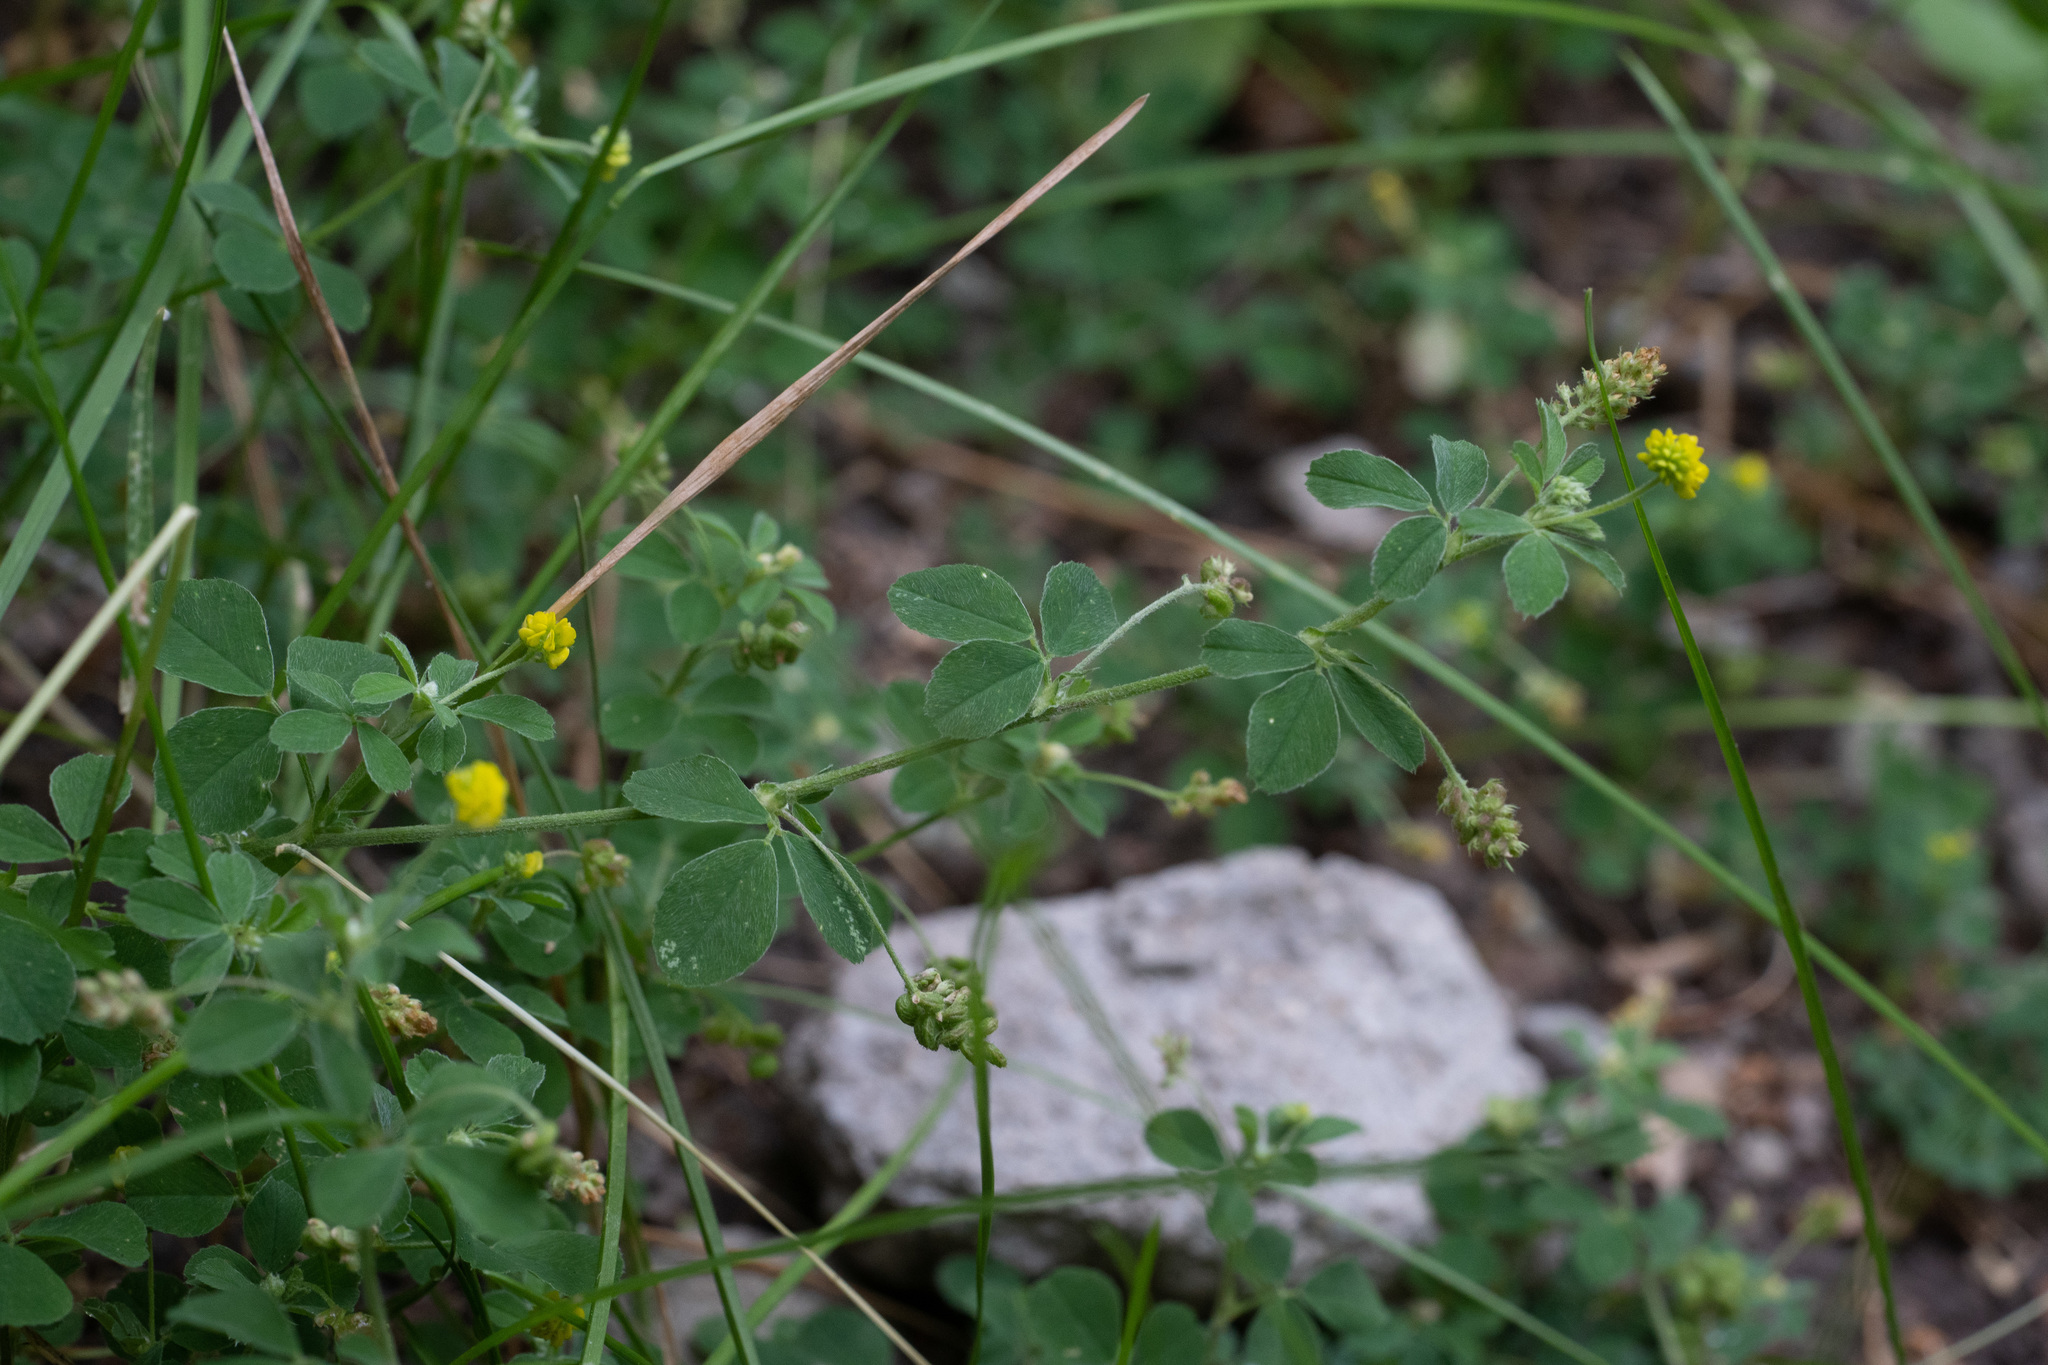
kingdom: Plantae
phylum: Tracheophyta
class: Magnoliopsida
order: Fabales
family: Fabaceae
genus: Medicago
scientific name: Medicago lupulina
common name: Black medick
